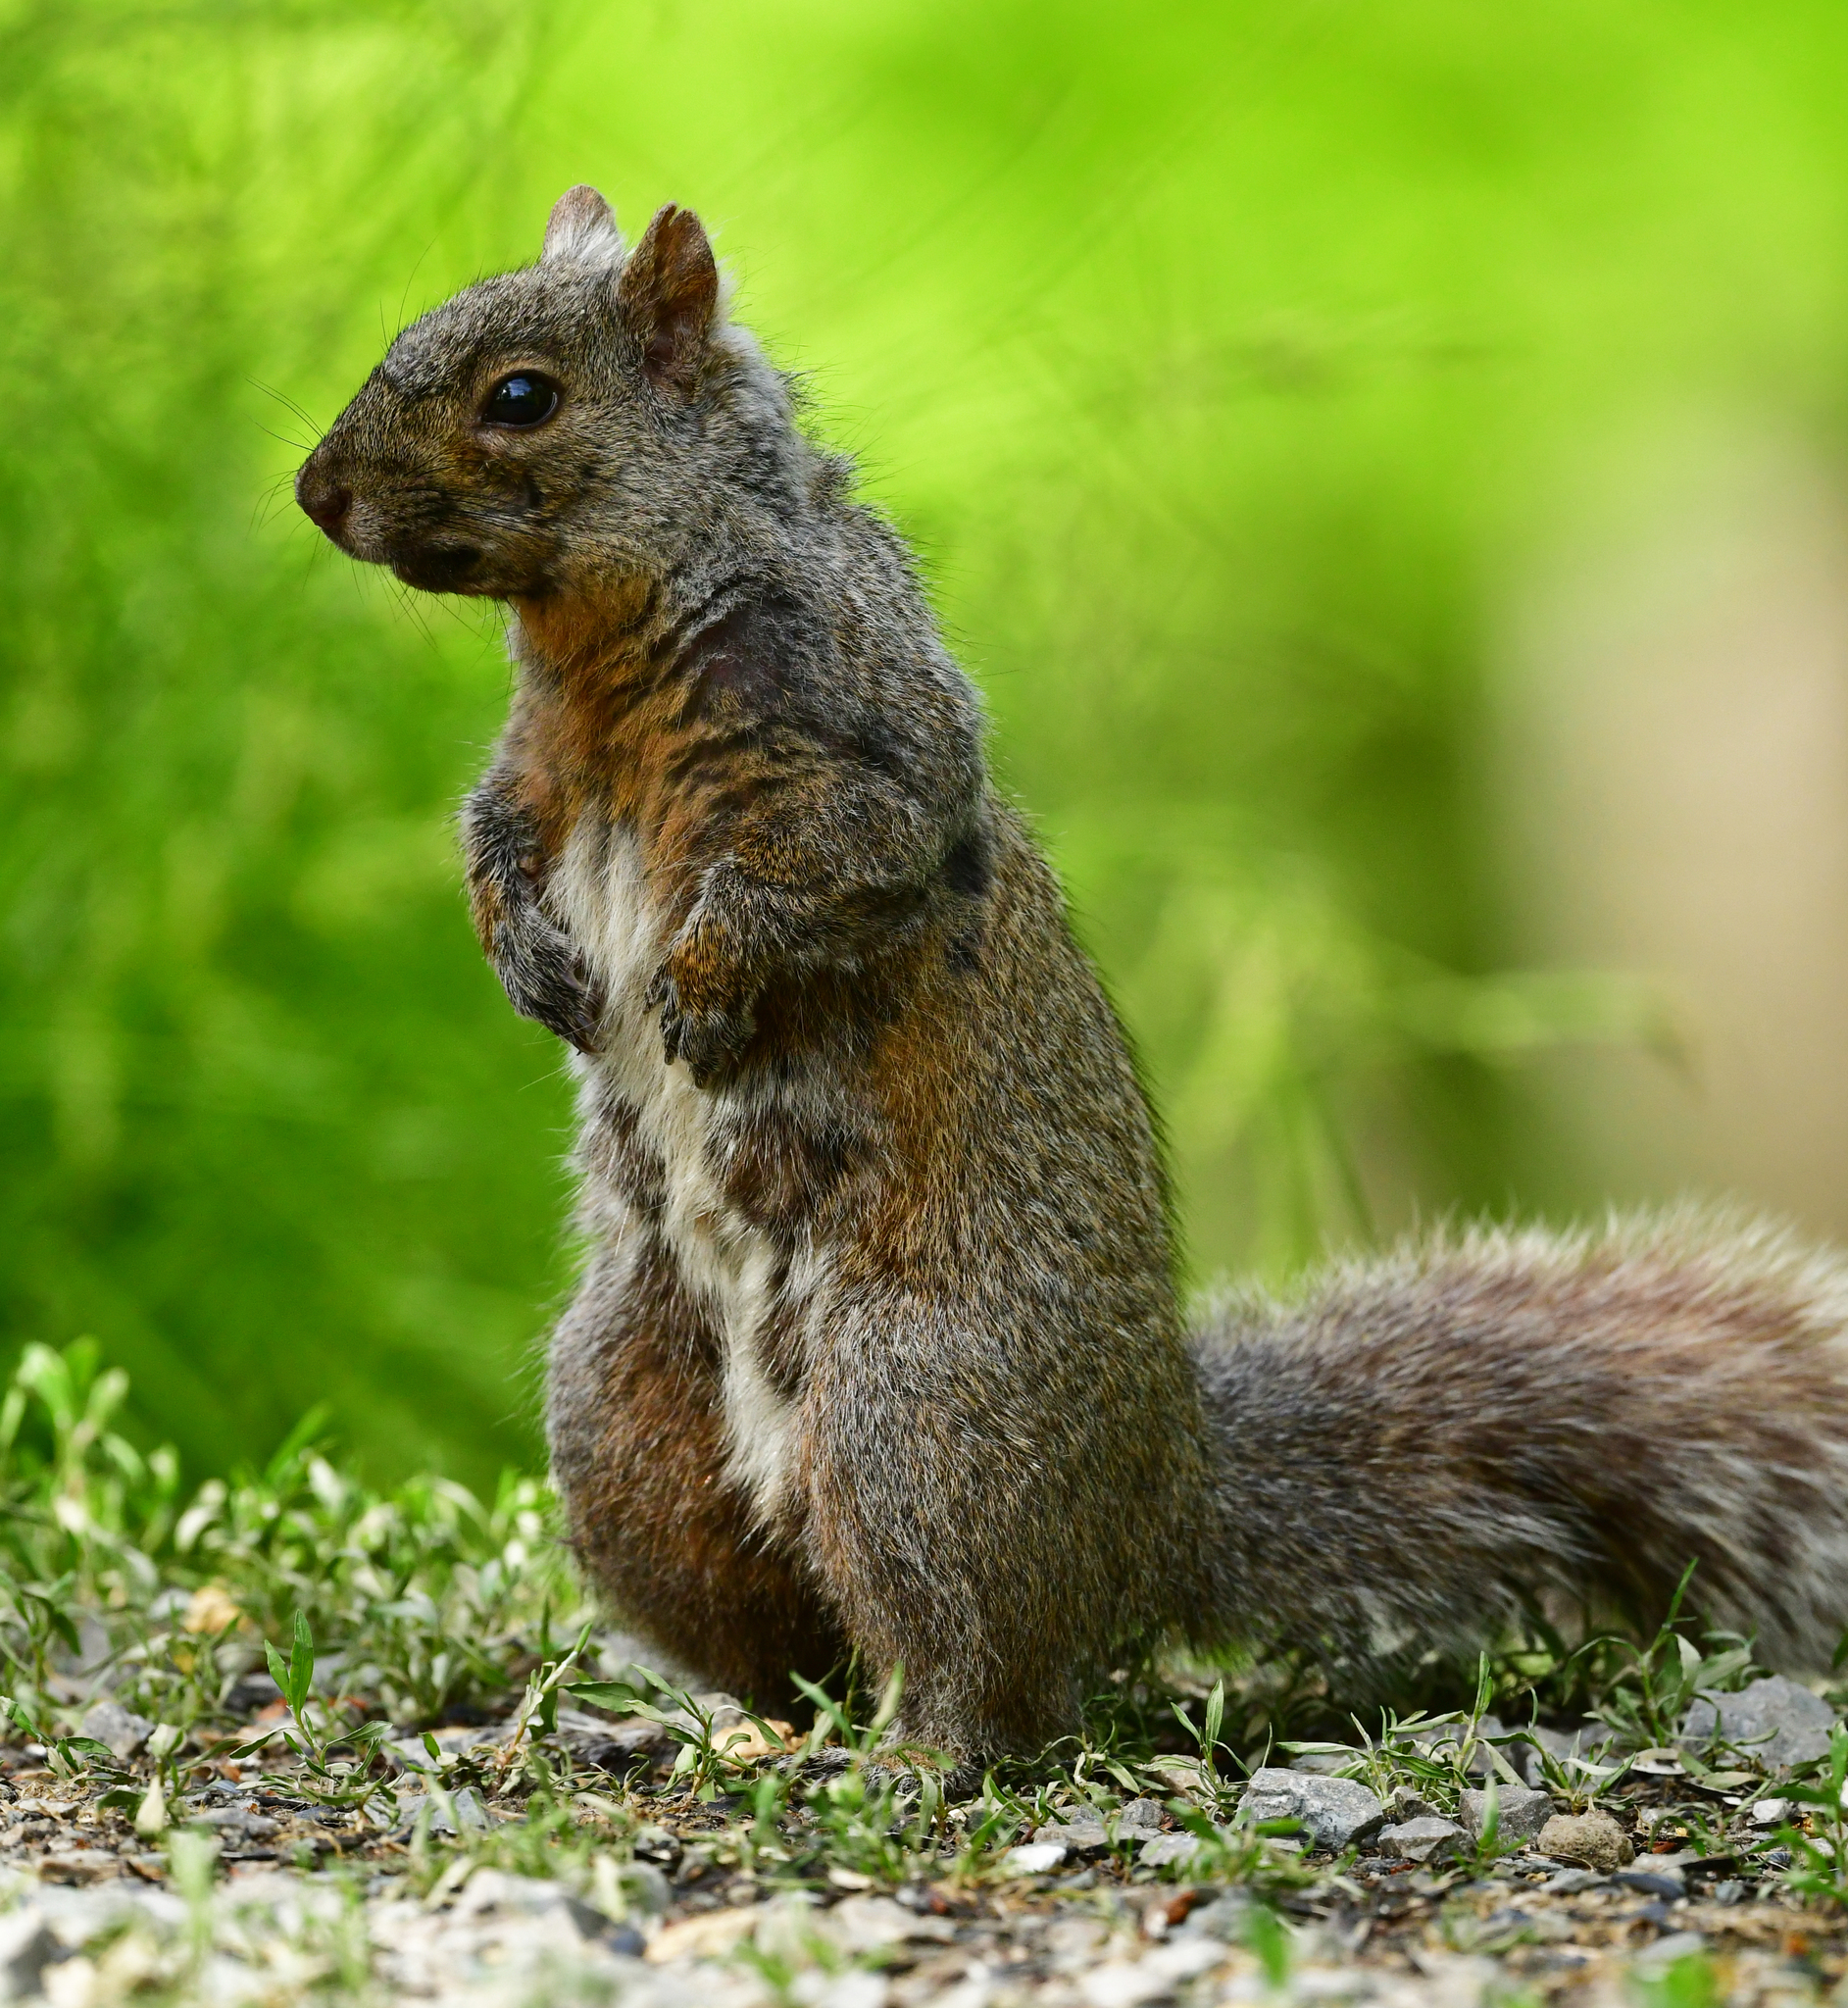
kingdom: Animalia
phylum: Chordata
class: Mammalia
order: Rodentia
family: Sciuridae
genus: Sciurus
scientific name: Sciurus carolinensis
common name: Eastern gray squirrel
